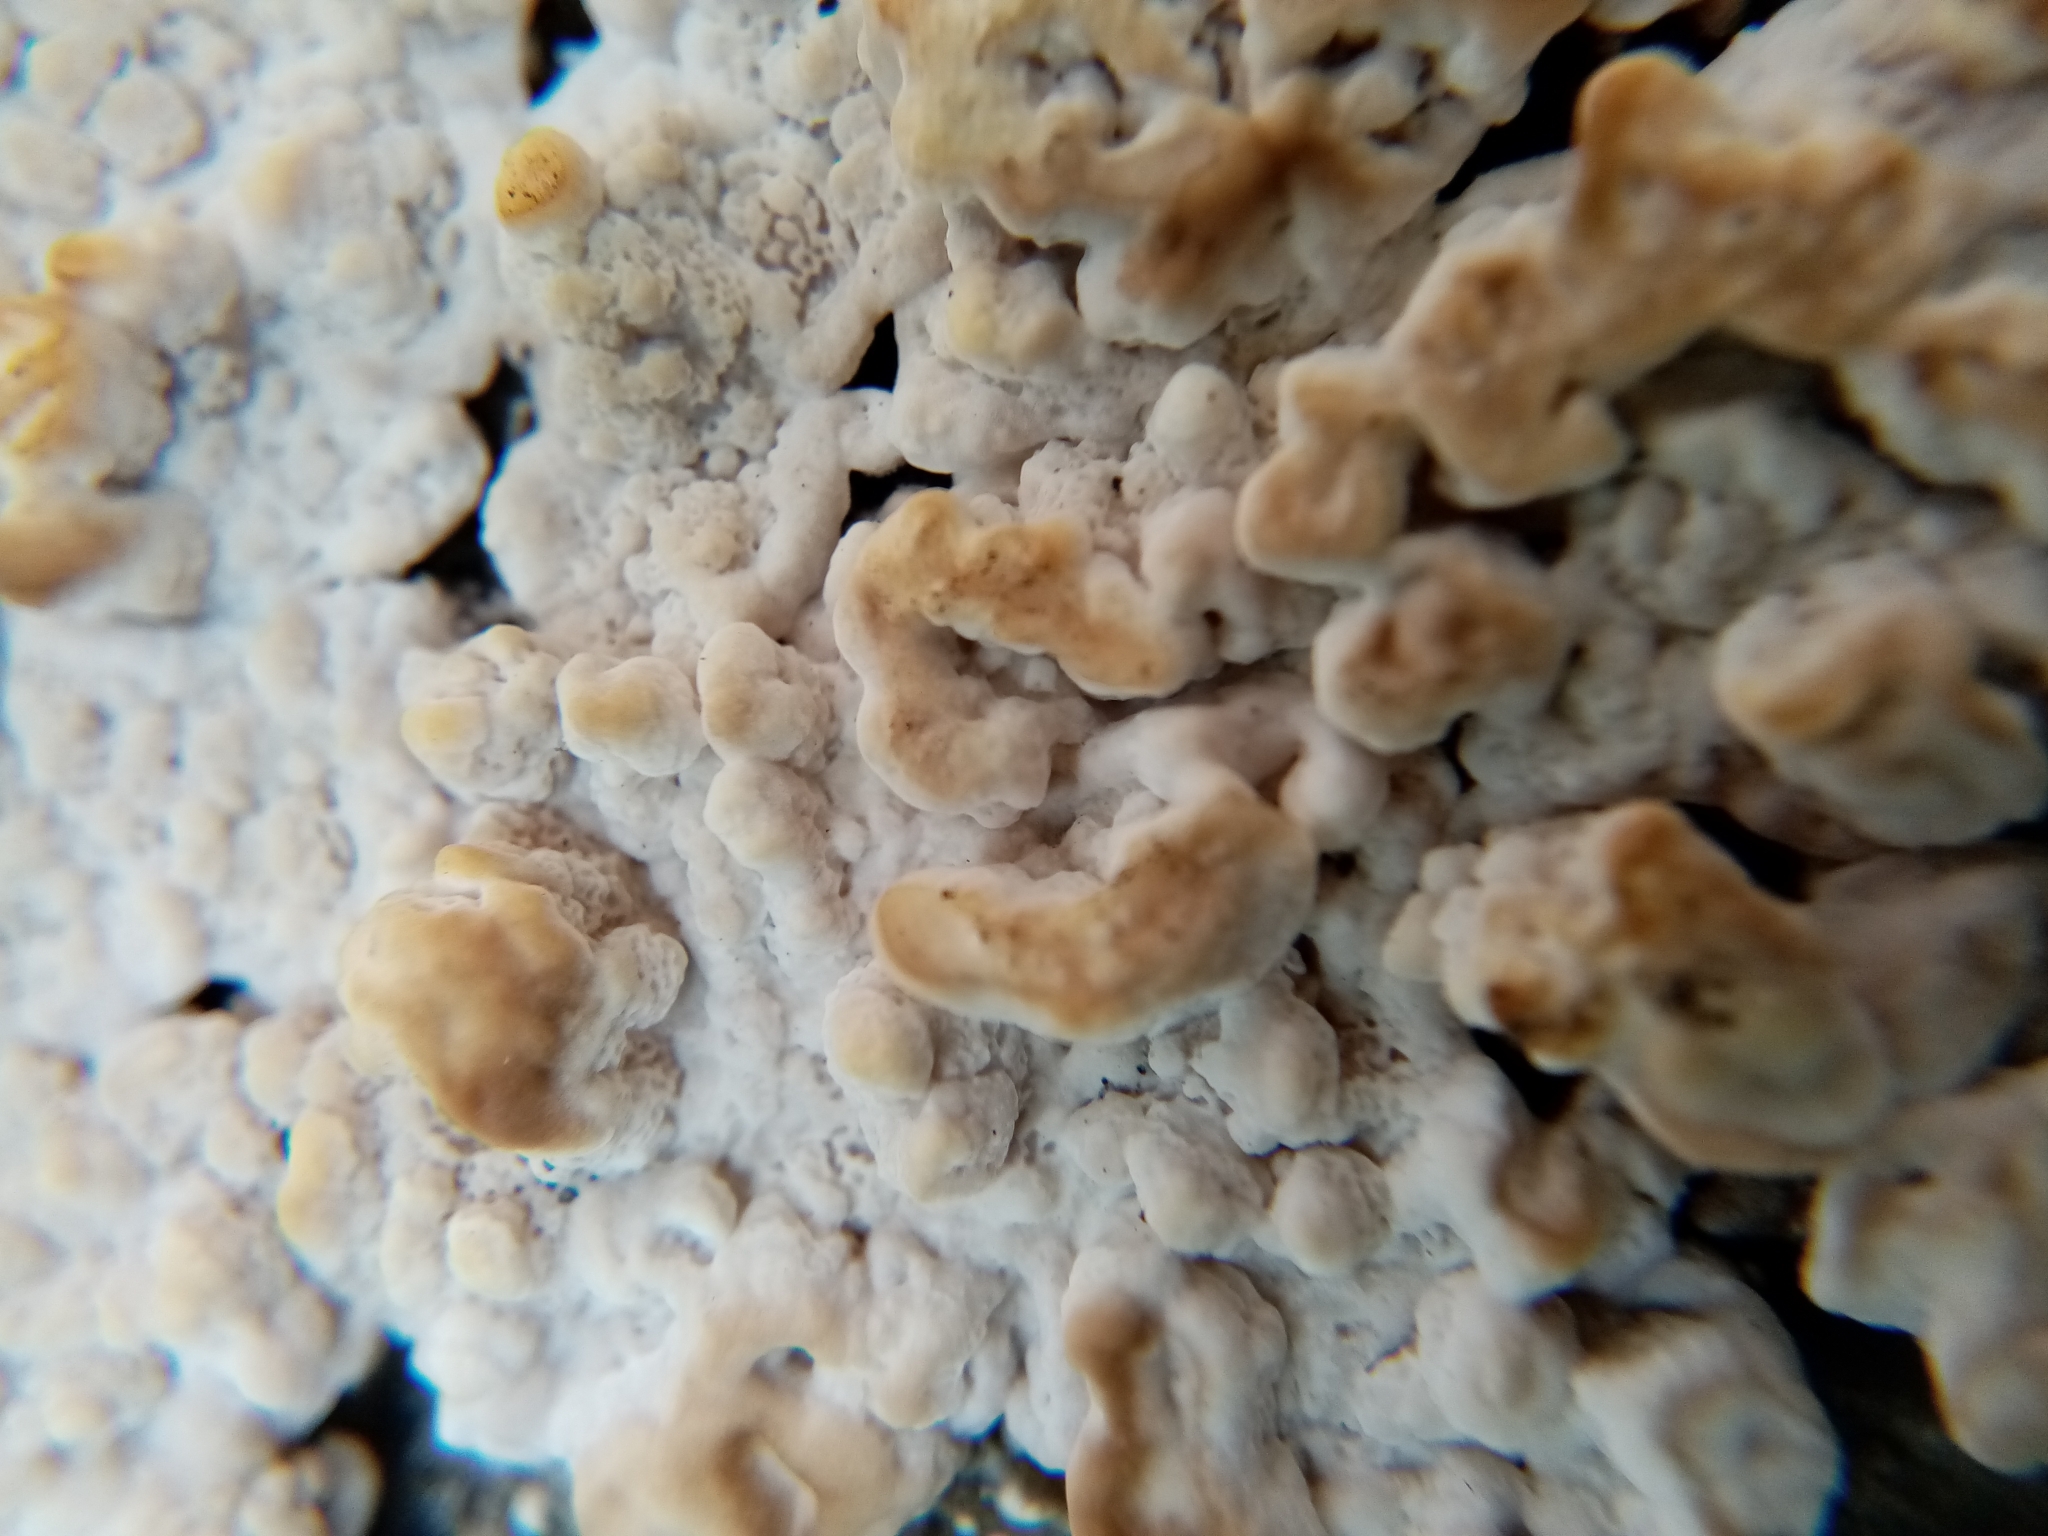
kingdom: Fungi
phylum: Basidiomycota
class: Agaricomycetes
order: Polyporales
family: Polyporaceae
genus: Trametes
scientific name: Trametes versicolor
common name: Turkeytail
